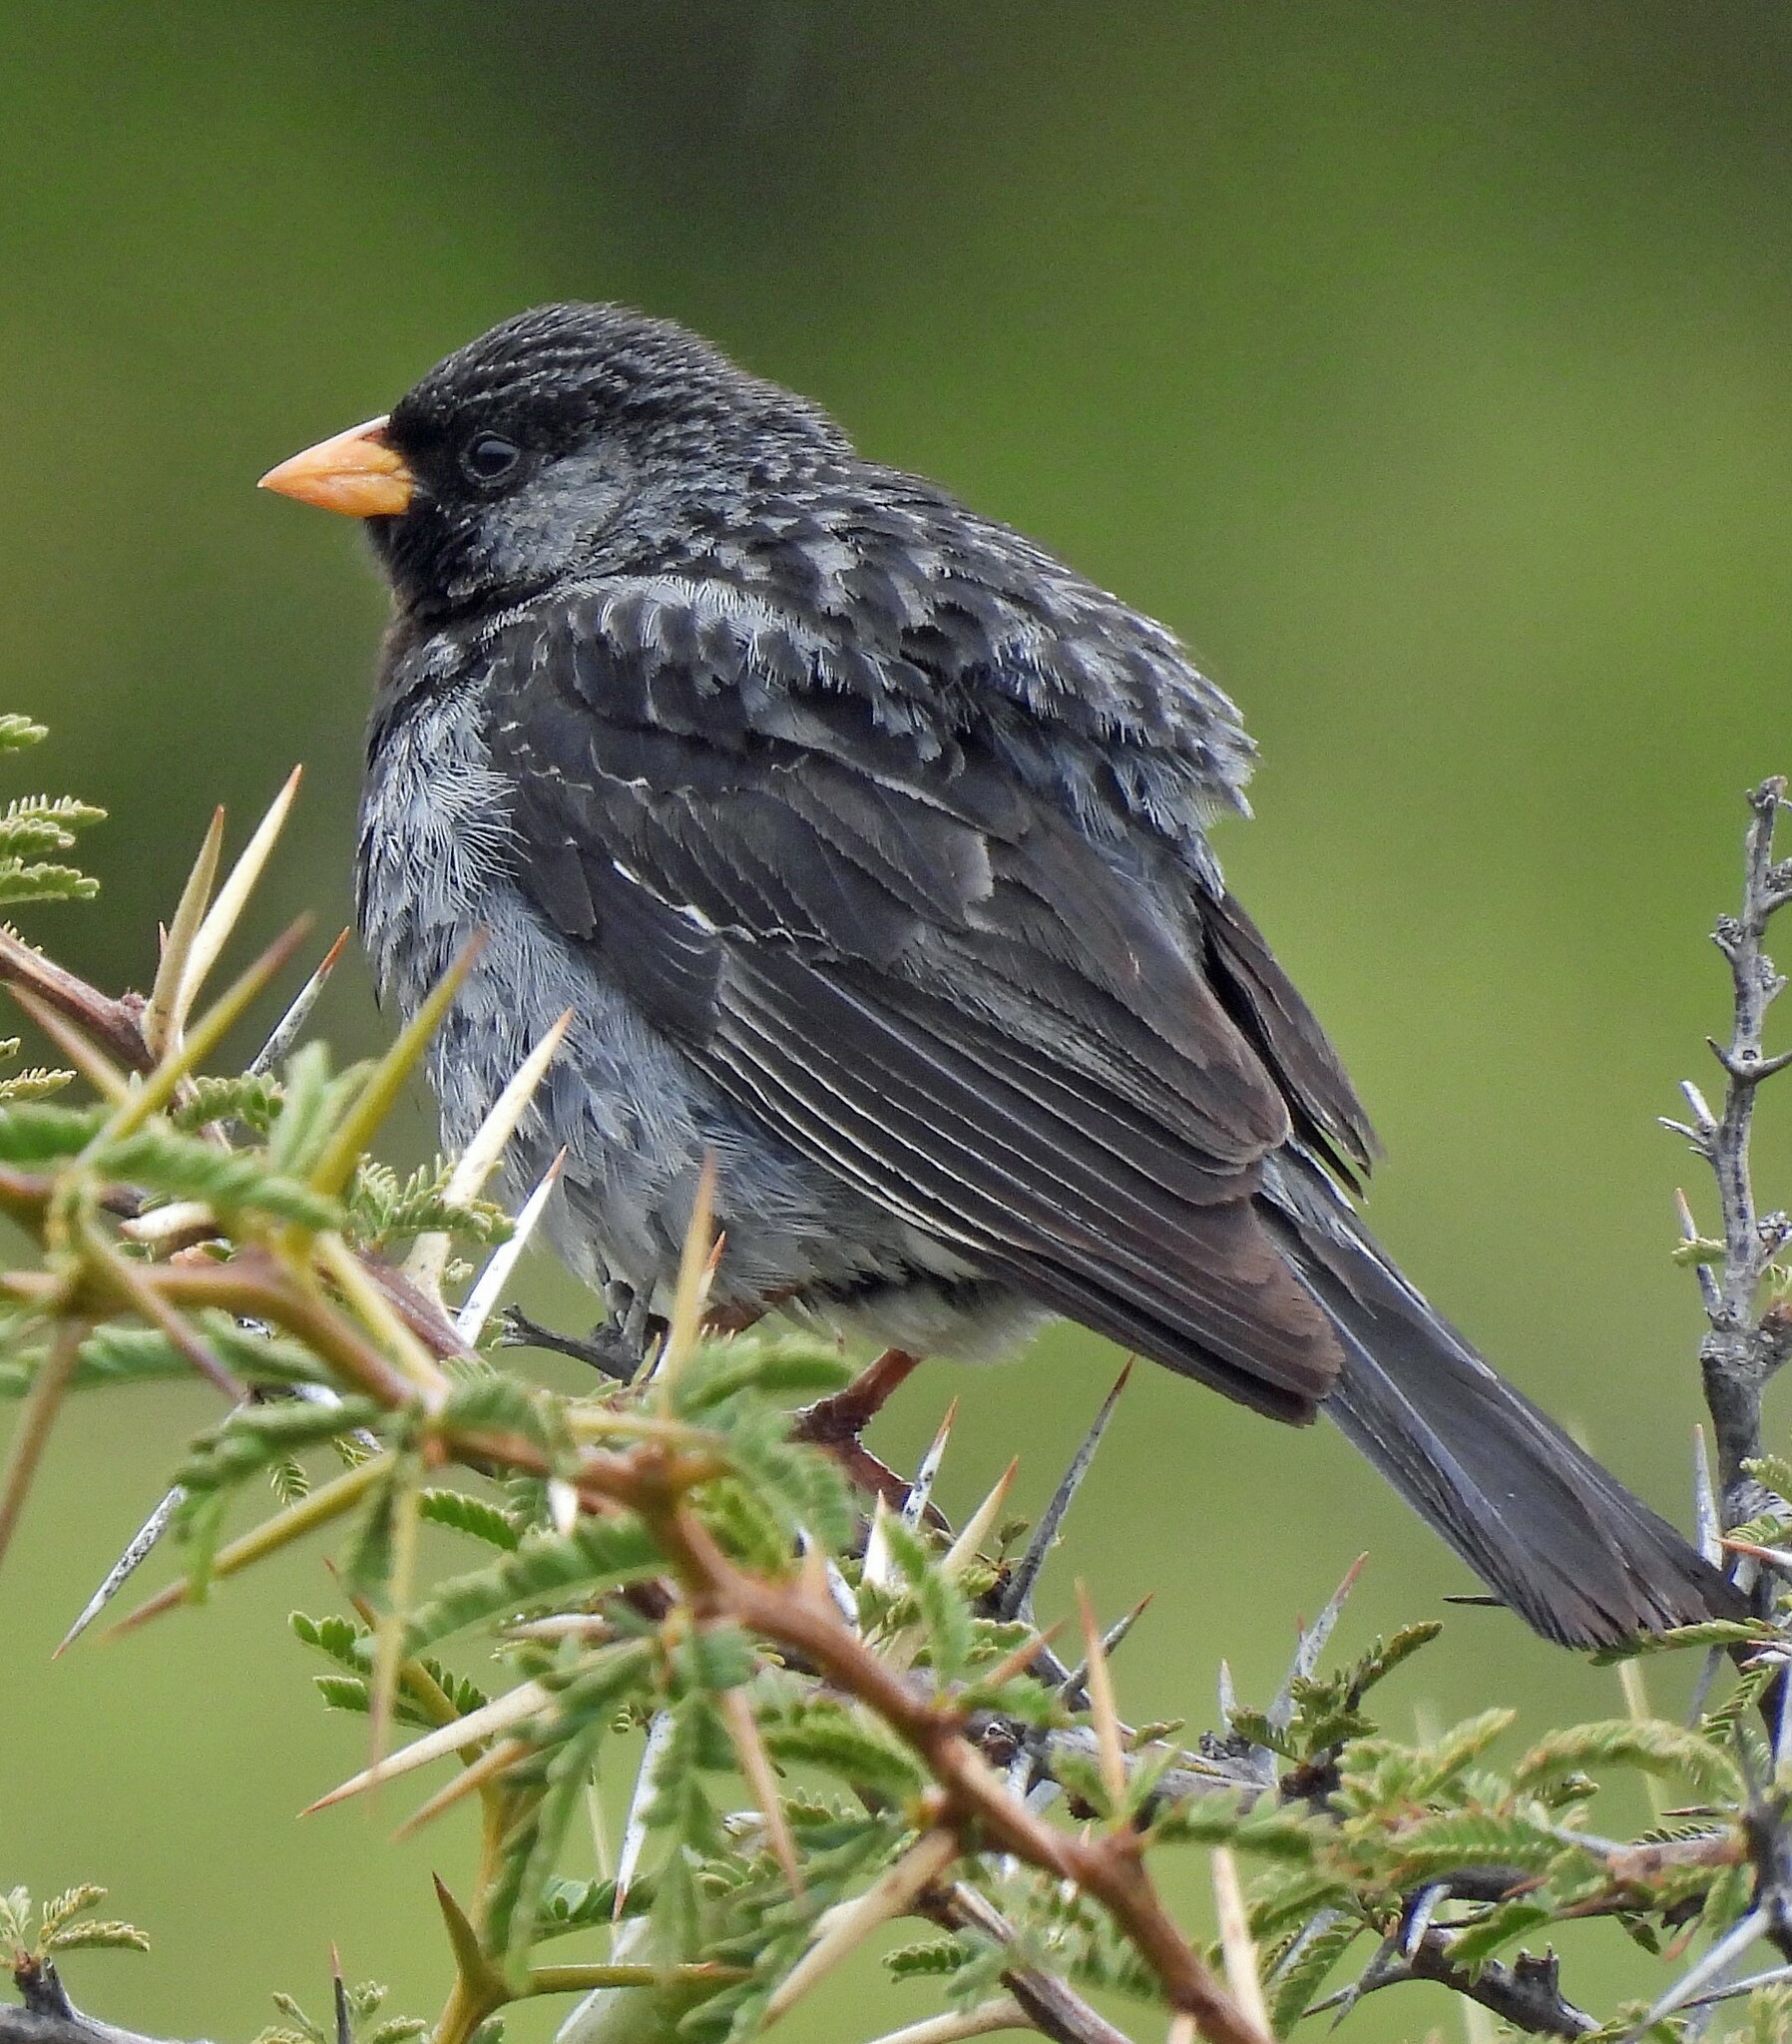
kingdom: Animalia
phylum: Chordata
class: Aves
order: Passeriformes
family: Thraupidae
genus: Rhopospina
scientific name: Rhopospina fruticeti
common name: Mourning sierra finch
